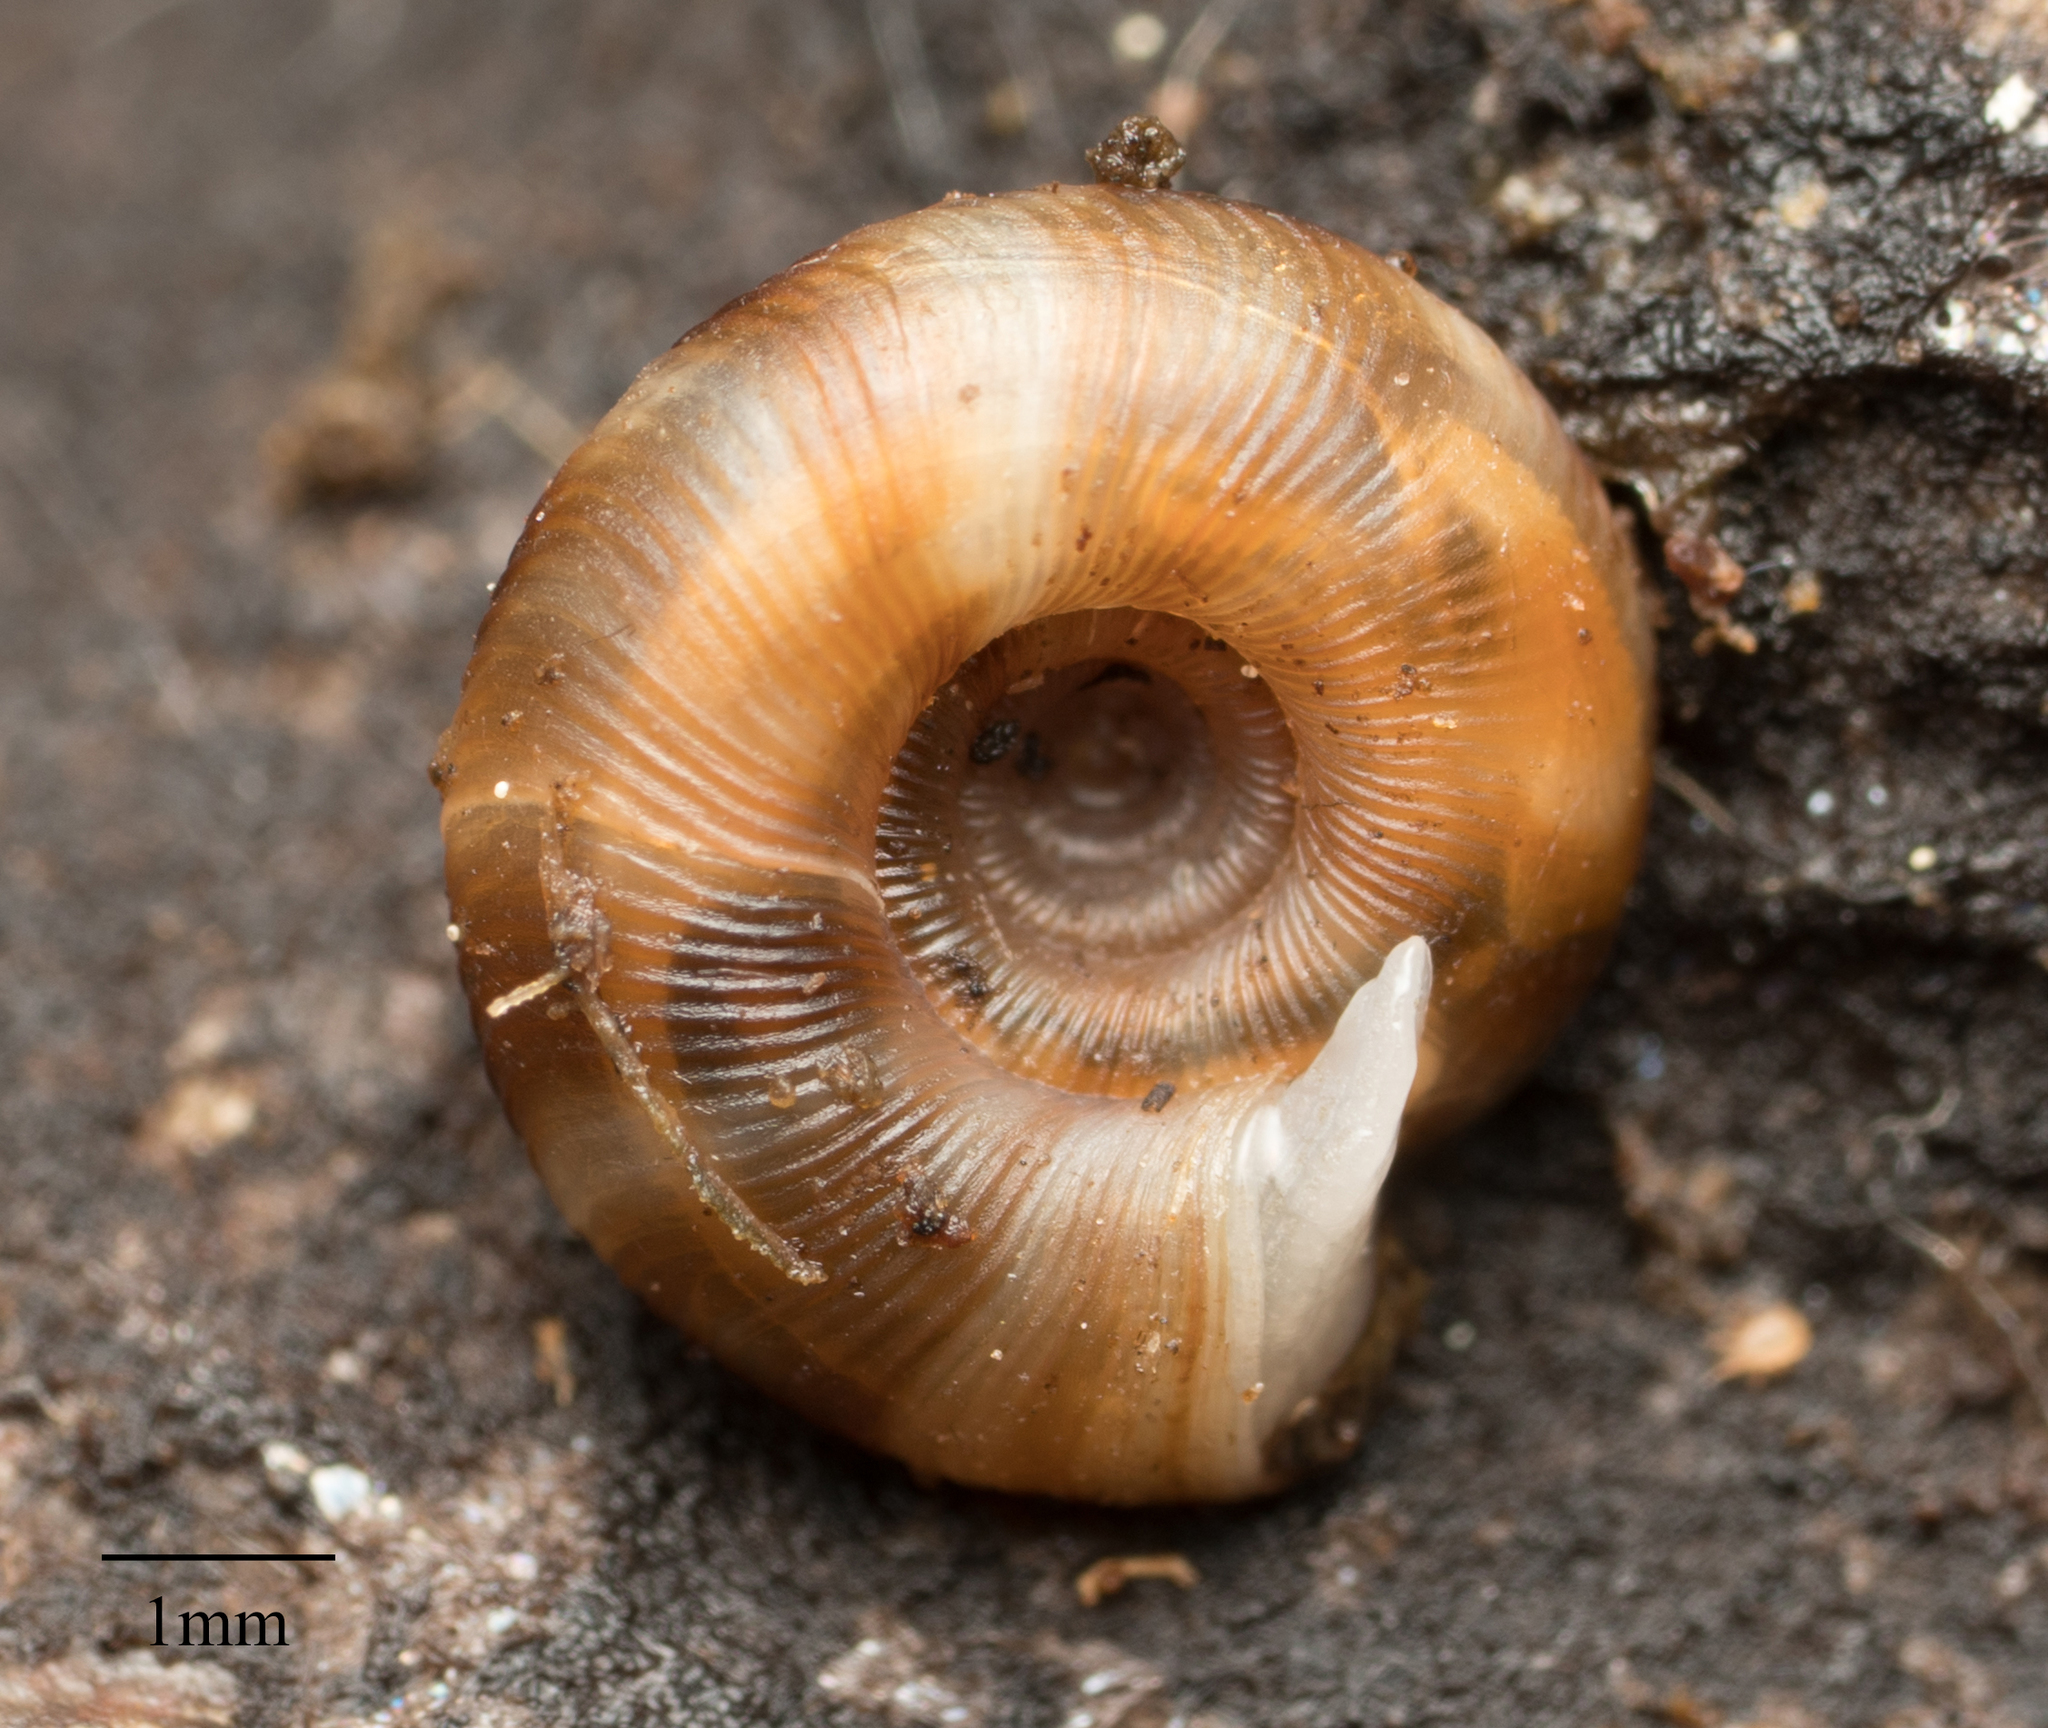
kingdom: Animalia
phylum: Mollusca
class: Gastropoda
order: Stylommatophora
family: Discidae
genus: Discus
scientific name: Discus rotundatus
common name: Rounded snail
